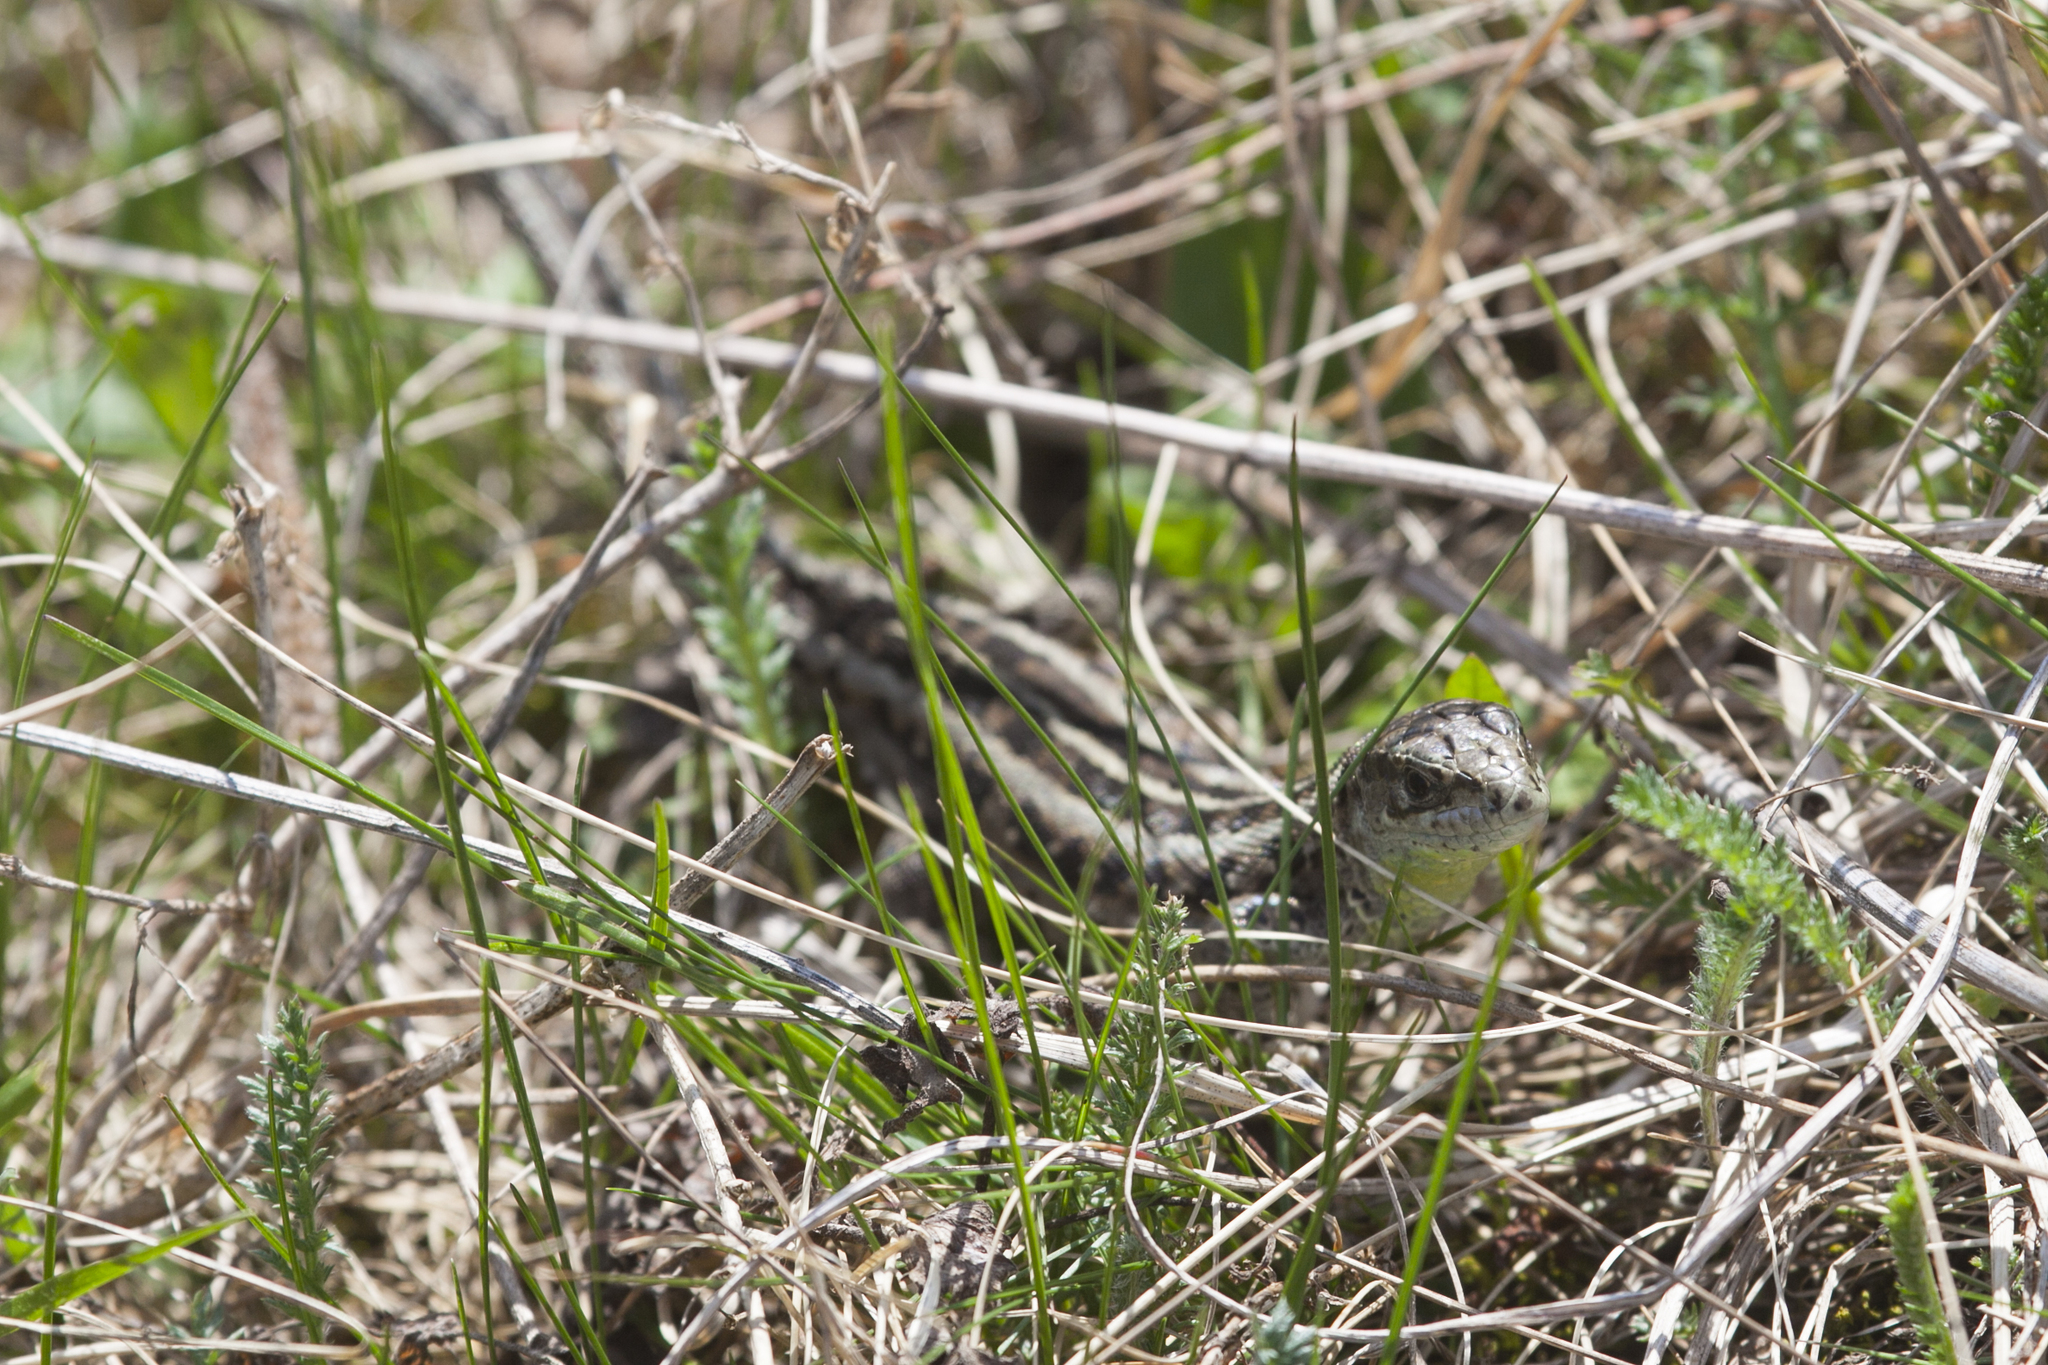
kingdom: Animalia
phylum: Chordata
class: Squamata
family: Lacertidae
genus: Lacerta
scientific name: Lacerta agilis
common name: Sand lizard
